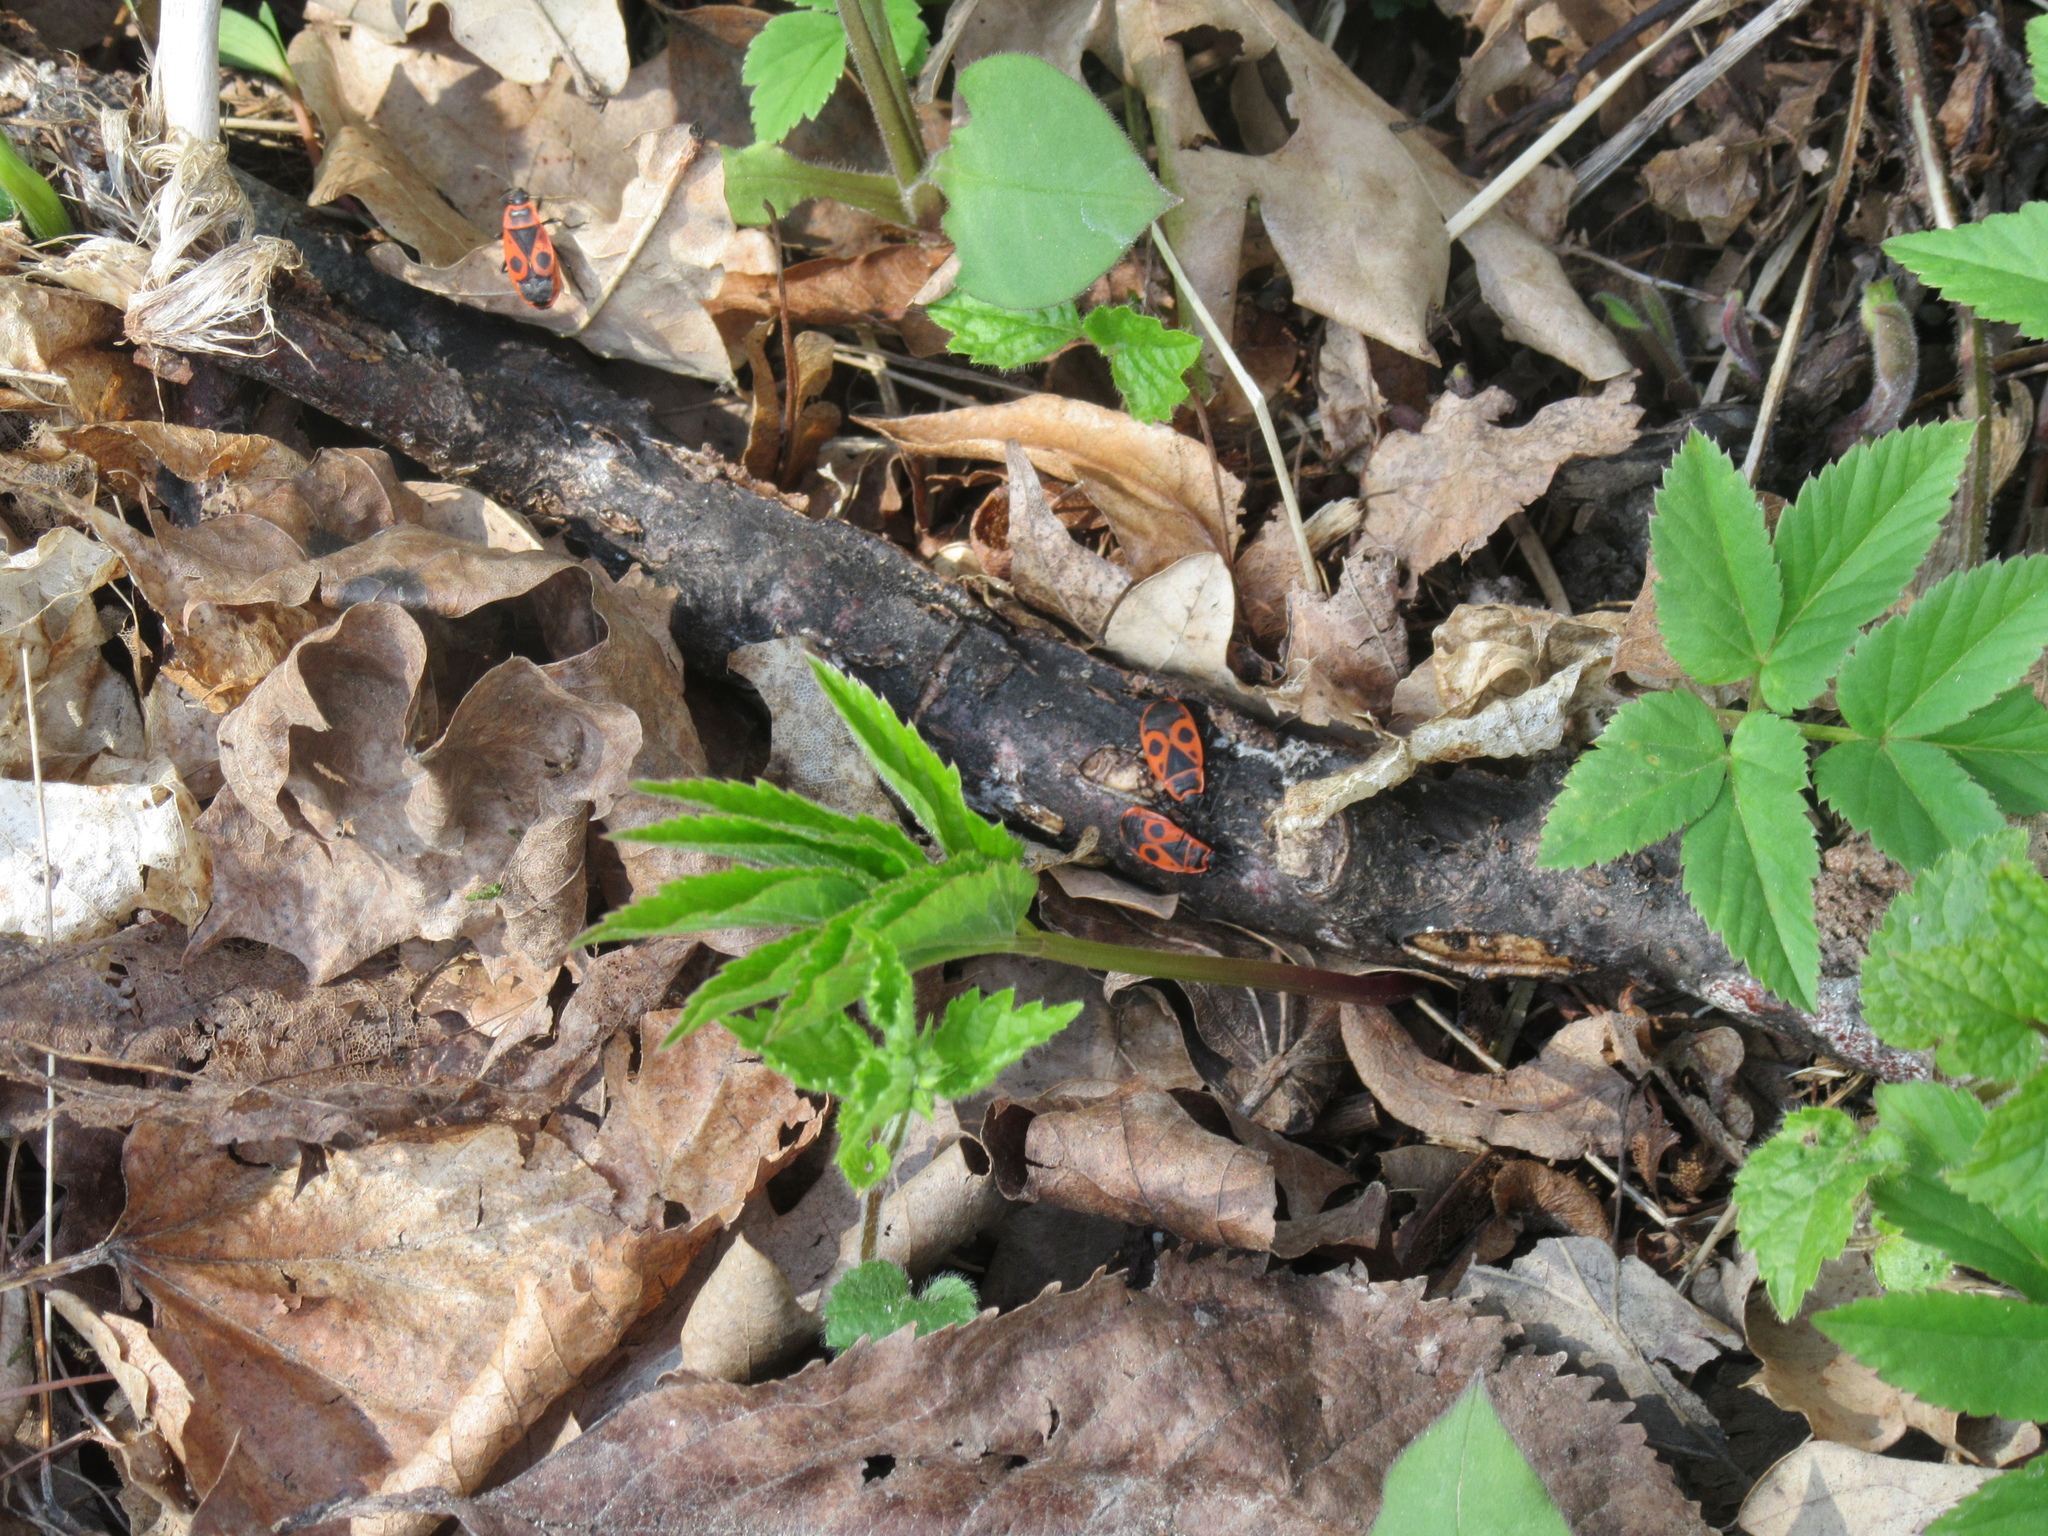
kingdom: Animalia
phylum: Arthropoda
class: Insecta
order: Hemiptera
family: Pyrrhocoridae
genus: Pyrrhocoris
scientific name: Pyrrhocoris apterus
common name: Firebug
